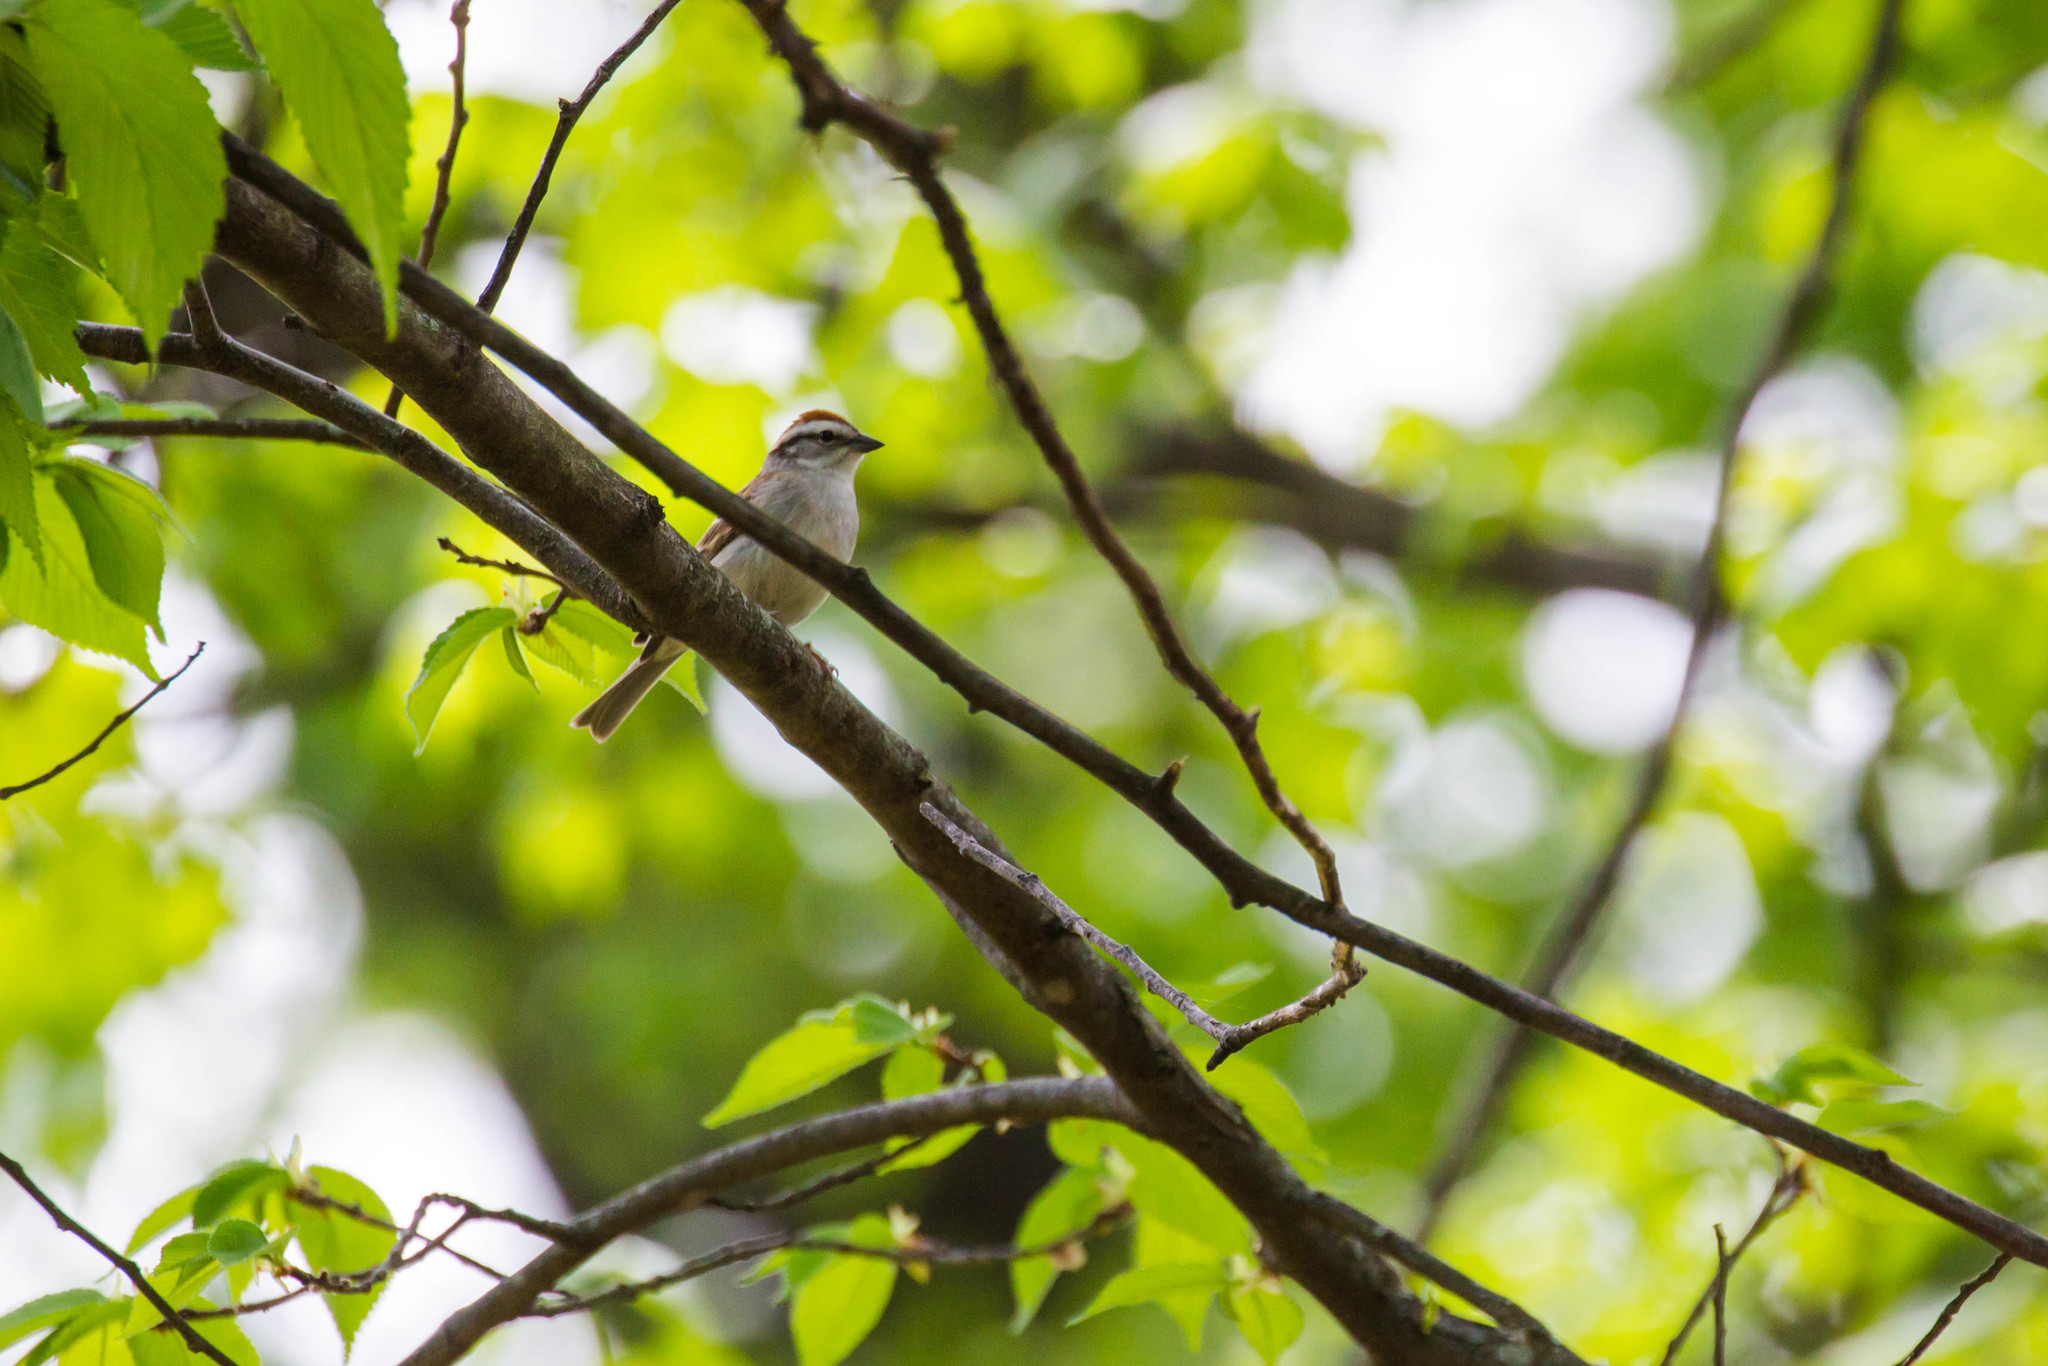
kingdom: Animalia
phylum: Chordata
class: Aves
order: Passeriformes
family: Passerellidae
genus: Spizella
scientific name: Spizella passerina
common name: Chipping sparrow
